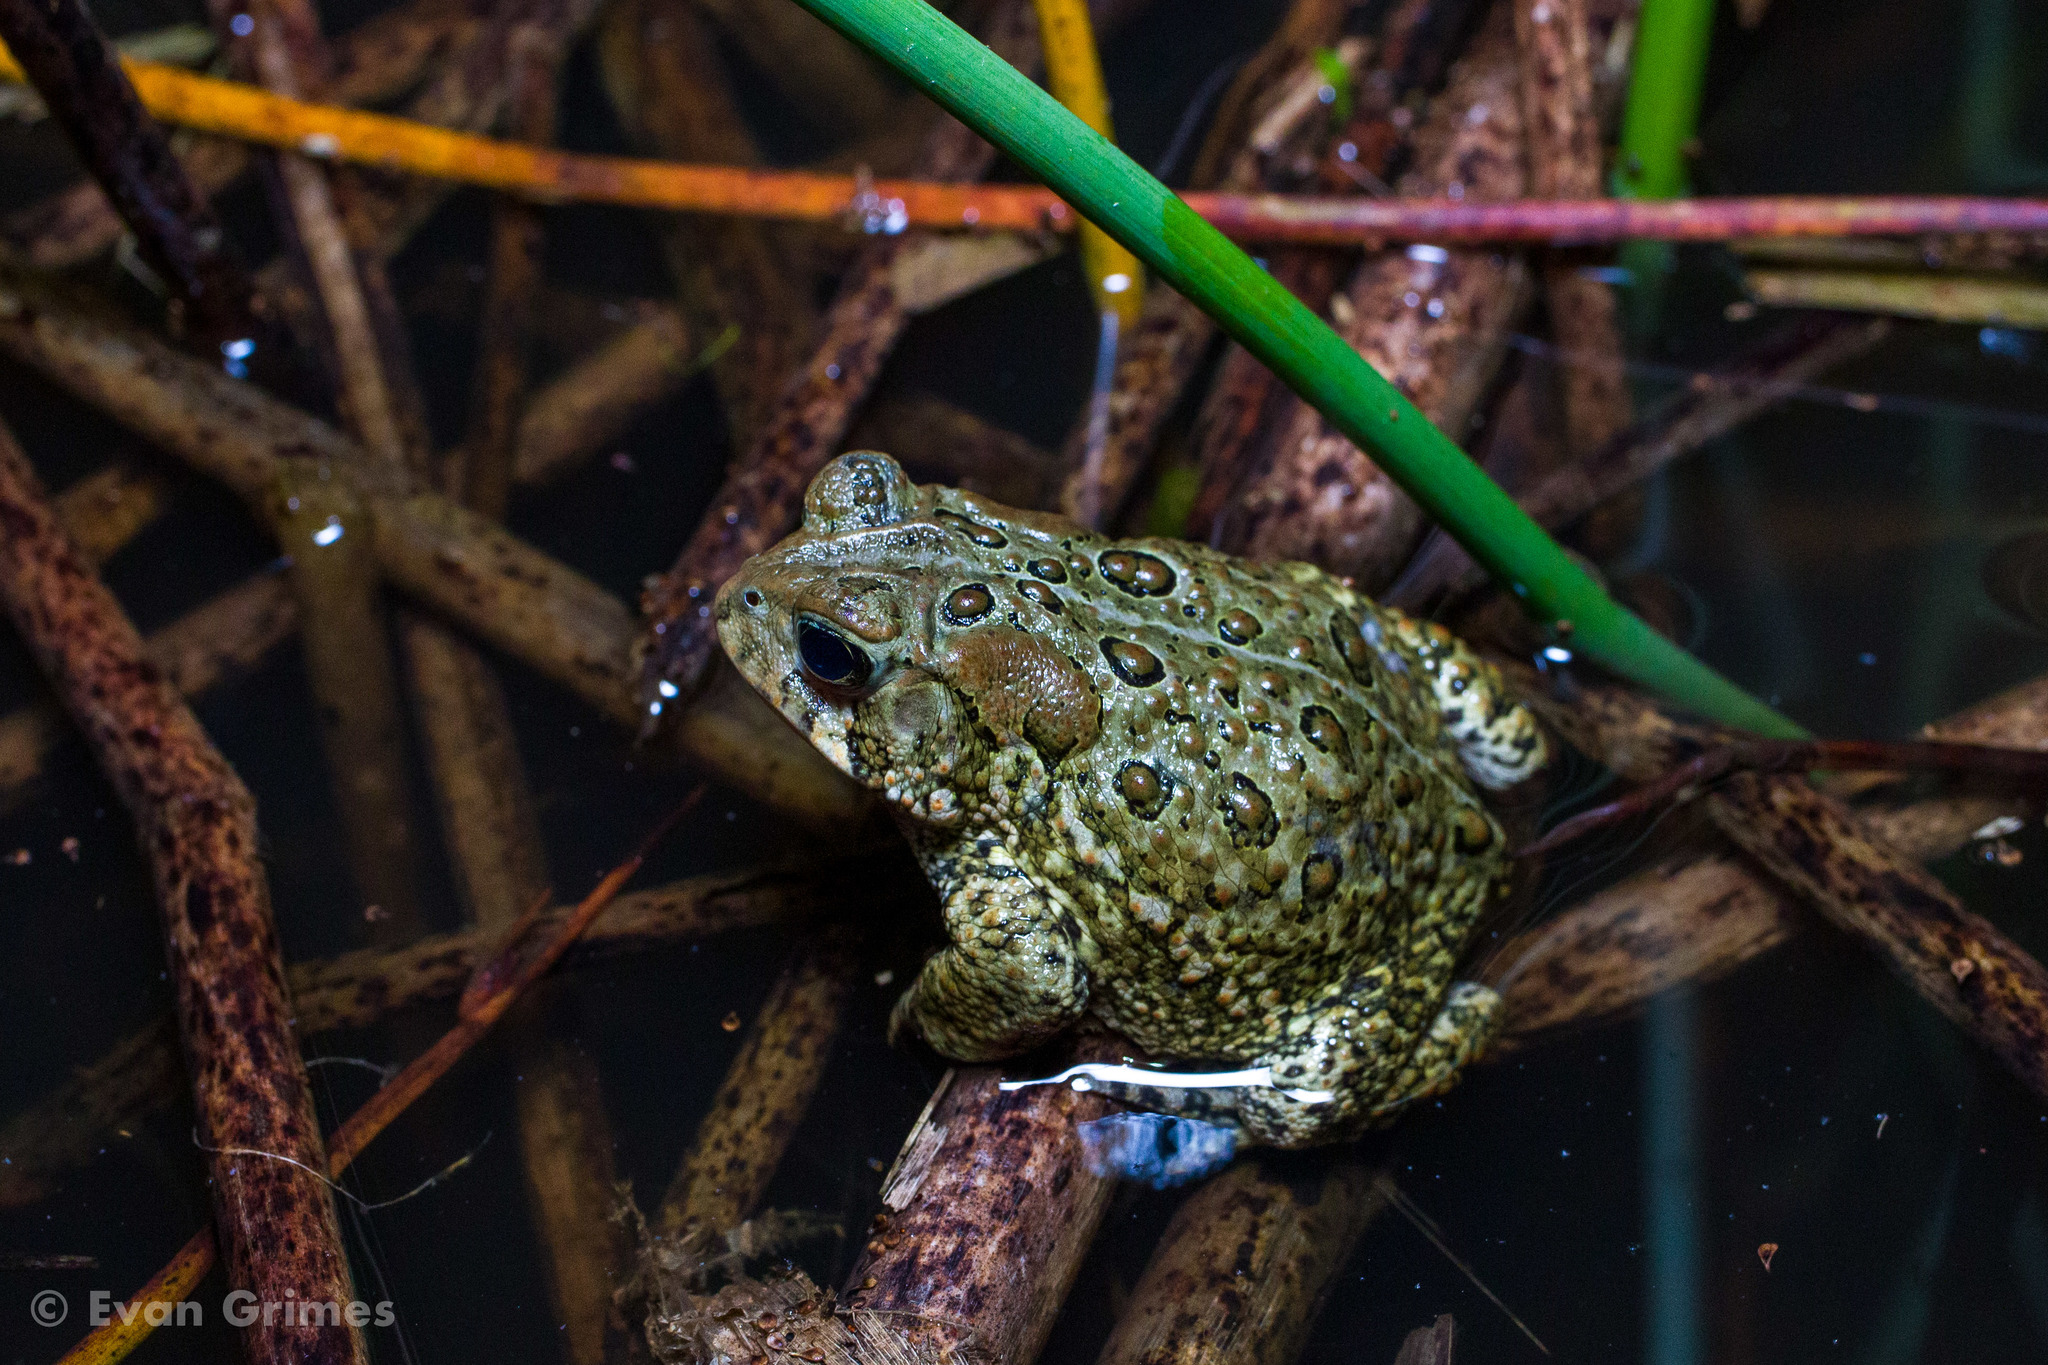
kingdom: Animalia
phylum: Chordata
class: Amphibia
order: Anura
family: Bufonidae
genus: Anaxyrus
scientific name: Anaxyrus americanus
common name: American toad
